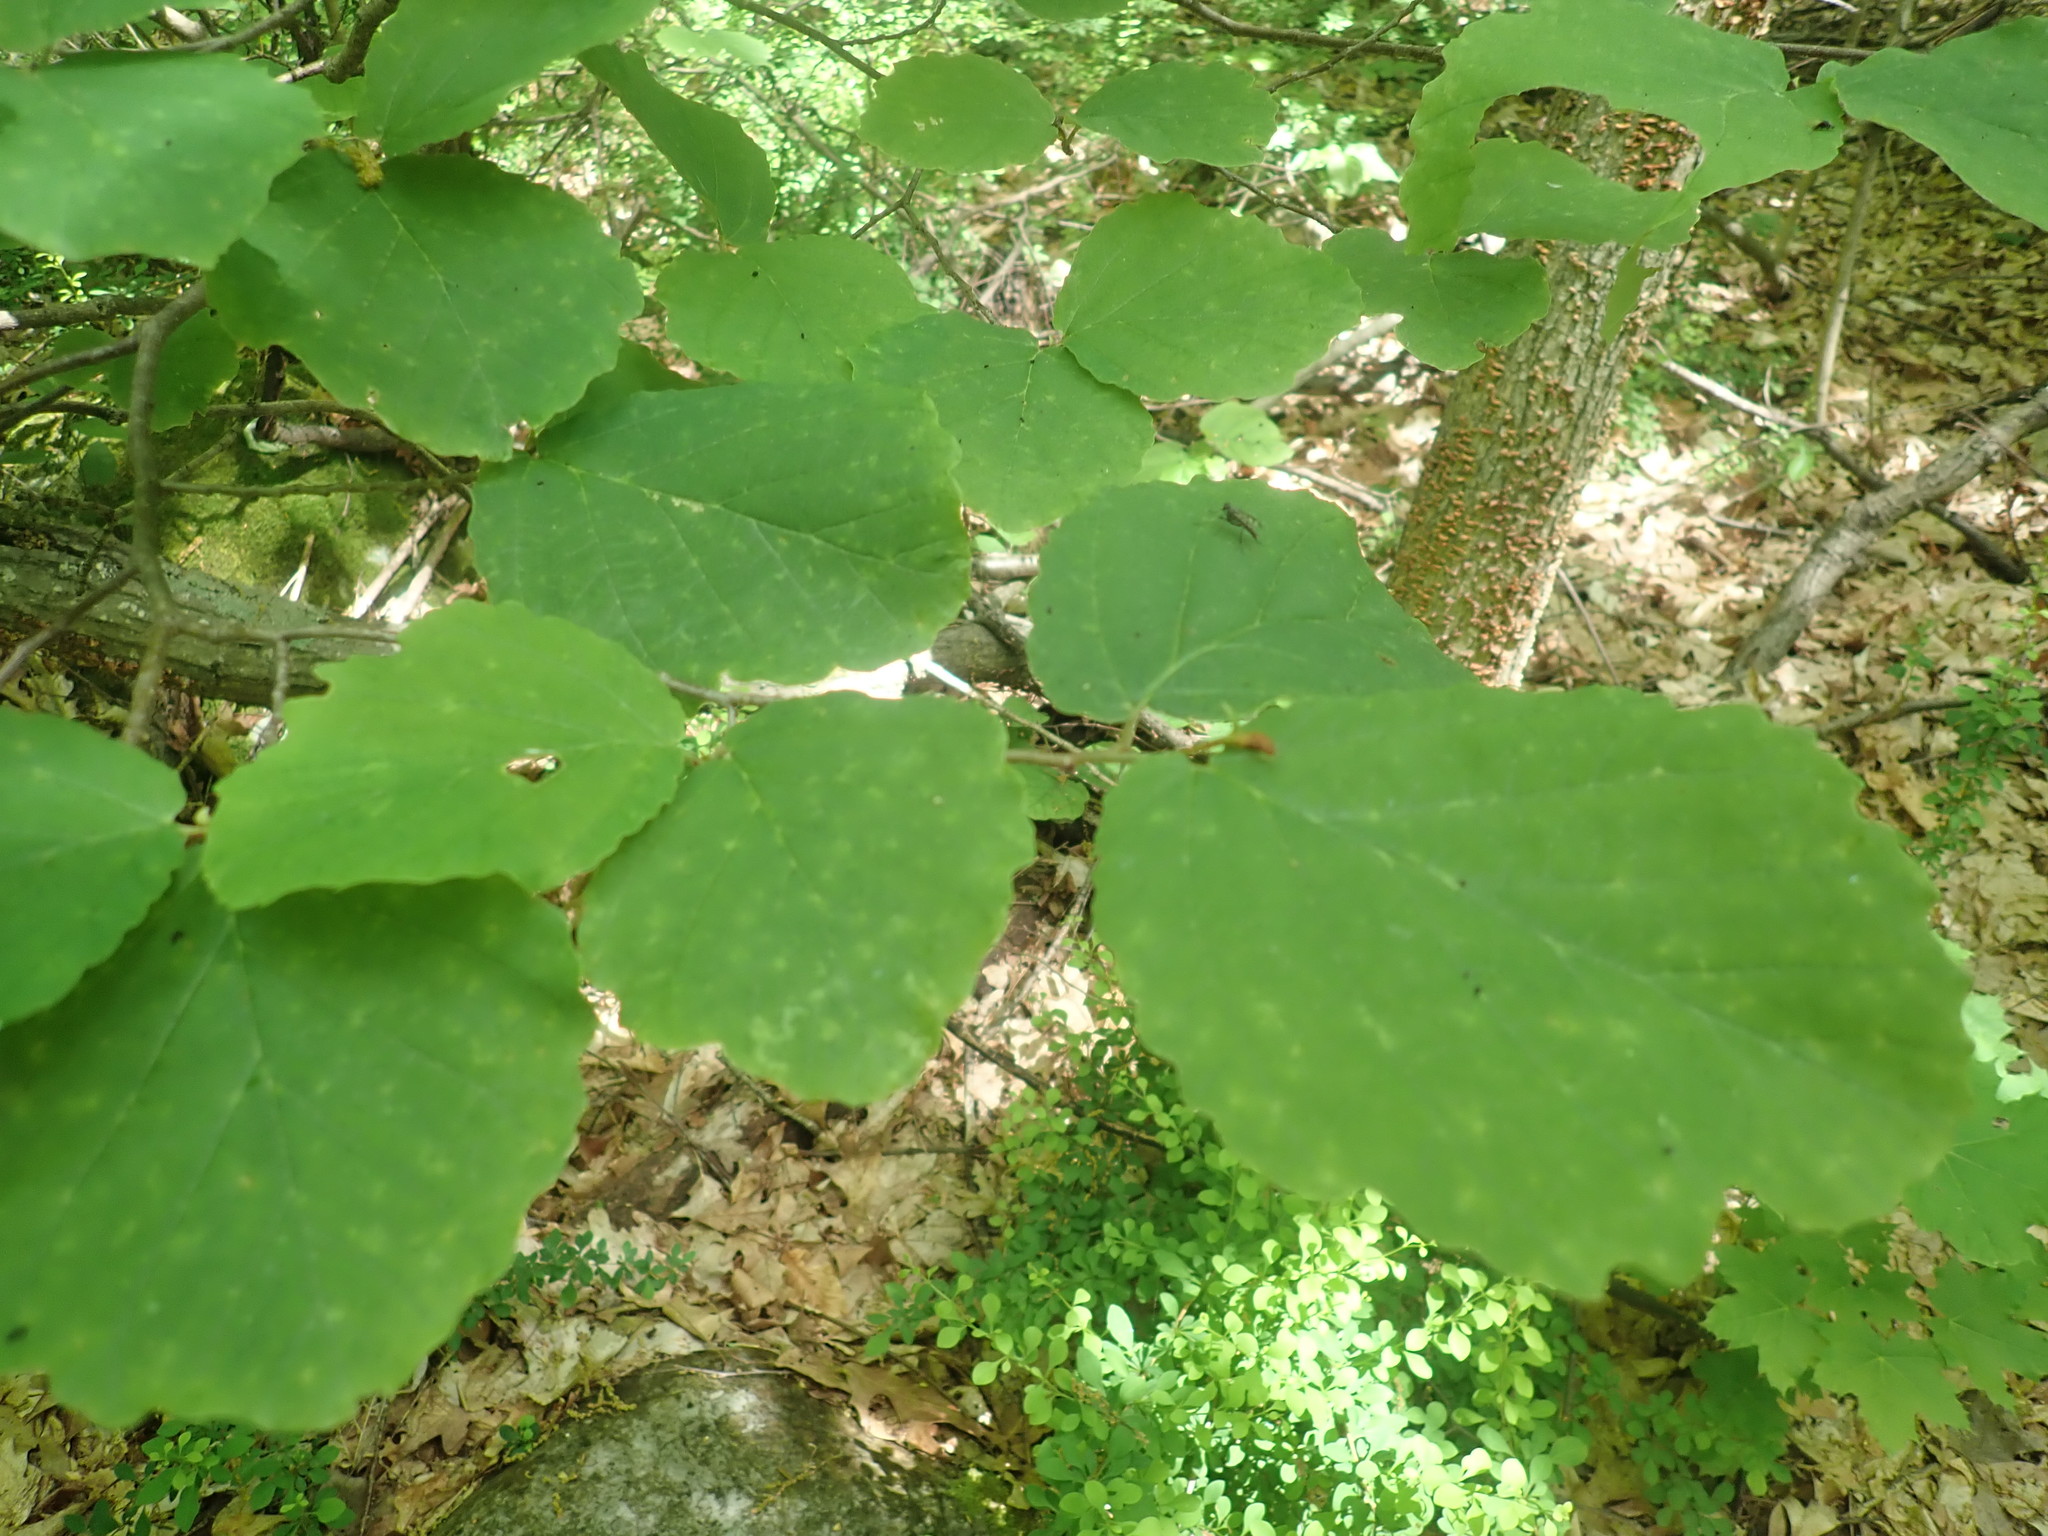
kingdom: Plantae
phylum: Tracheophyta
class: Magnoliopsida
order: Saxifragales
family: Hamamelidaceae
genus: Hamamelis
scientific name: Hamamelis virginiana
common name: Witch-hazel
